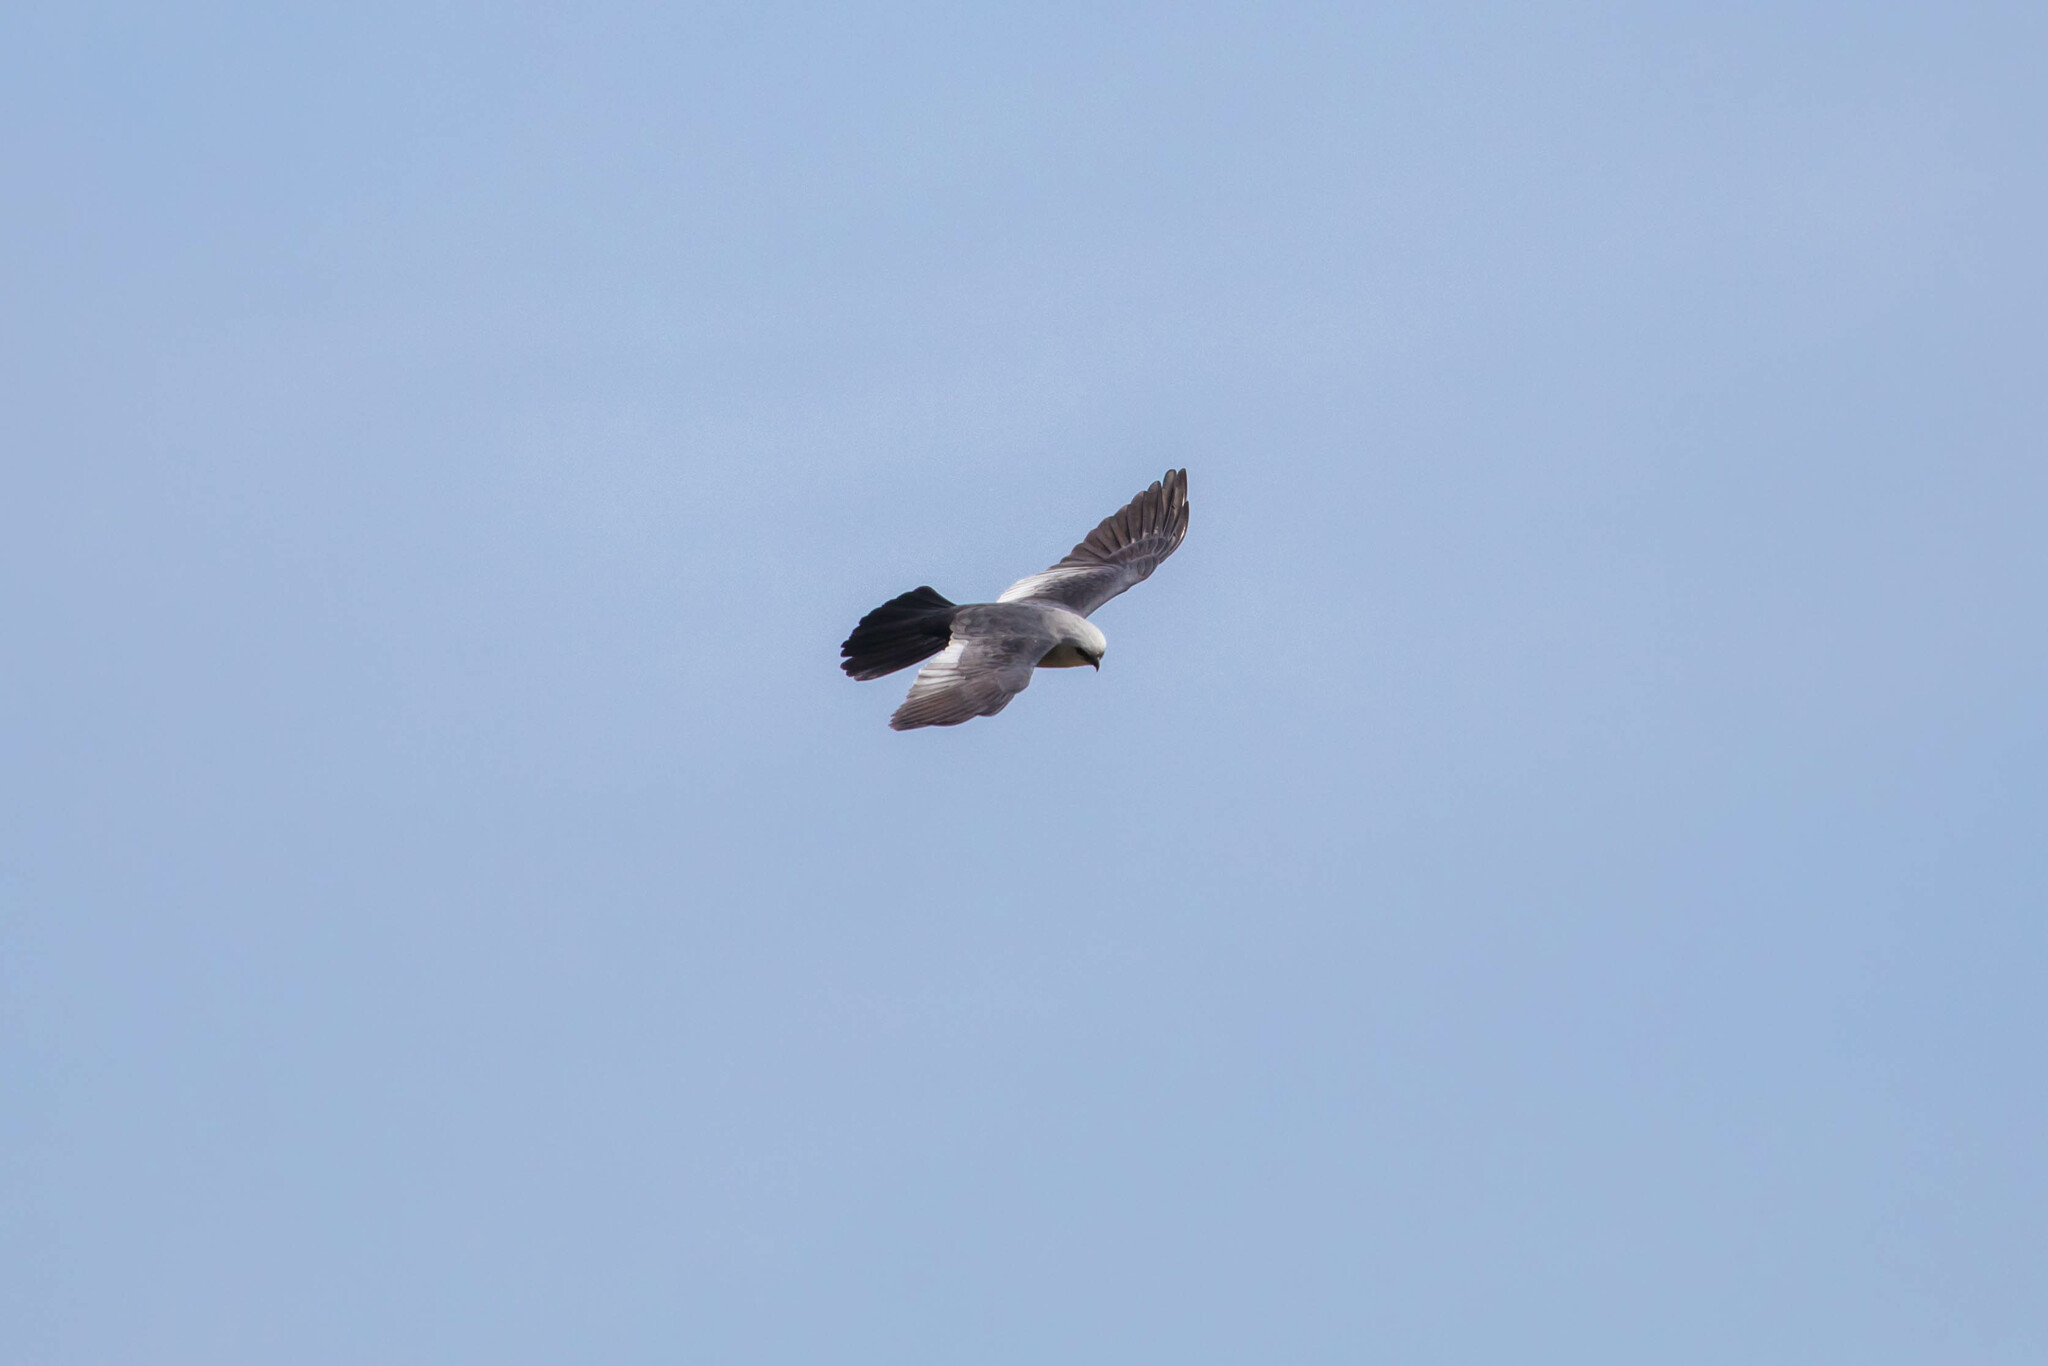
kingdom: Animalia
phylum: Chordata
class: Aves
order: Accipitriformes
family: Accipitridae
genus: Ictinia
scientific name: Ictinia mississippiensis
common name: Mississippi kite
